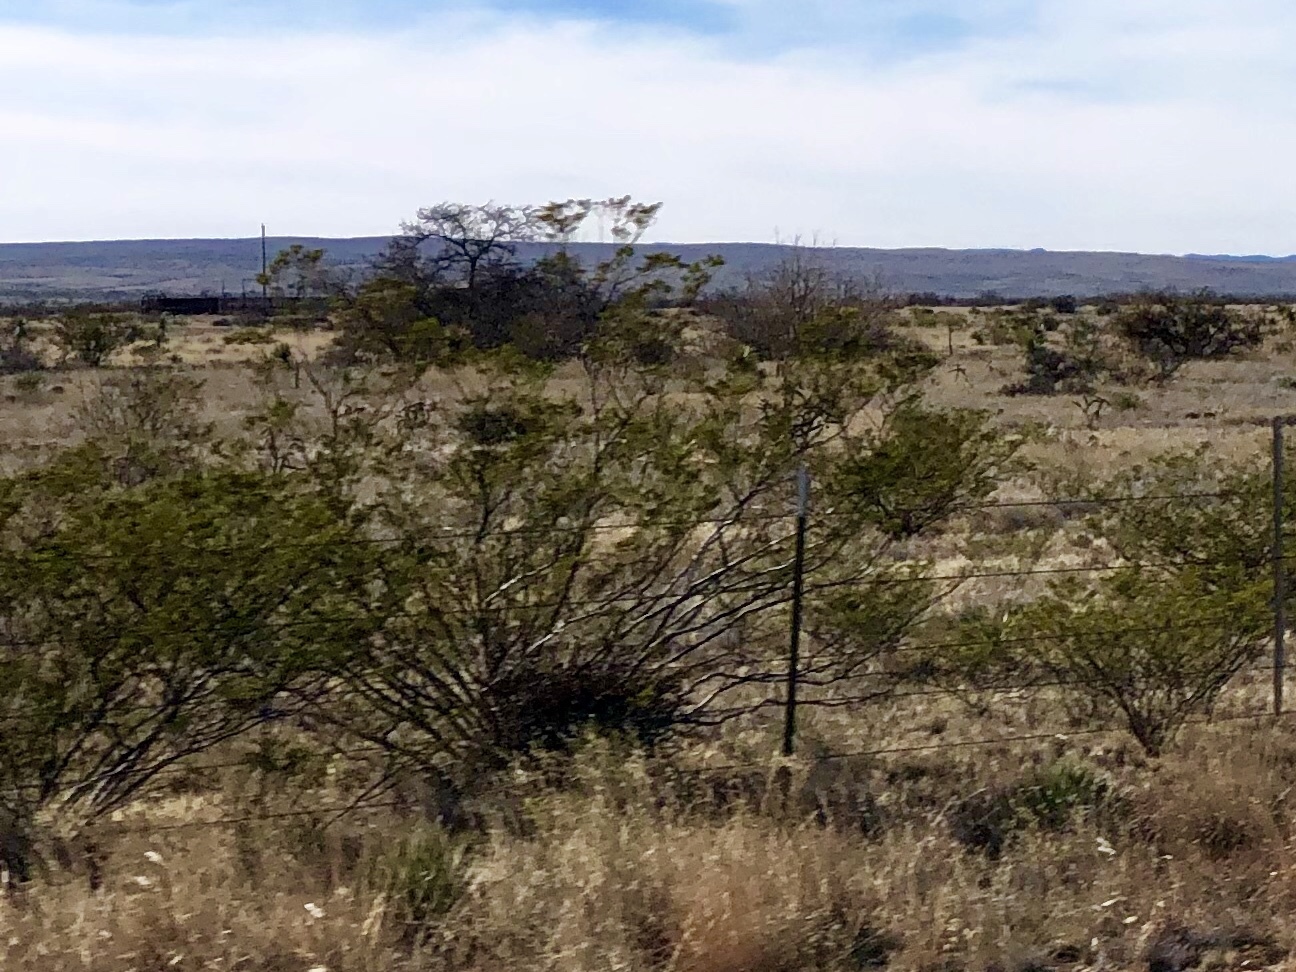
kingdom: Plantae
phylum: Tracheophyta
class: Magnoliopsida
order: Zygophyllales
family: Zygophyllaceae
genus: Larrea
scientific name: Larrea tridentata
